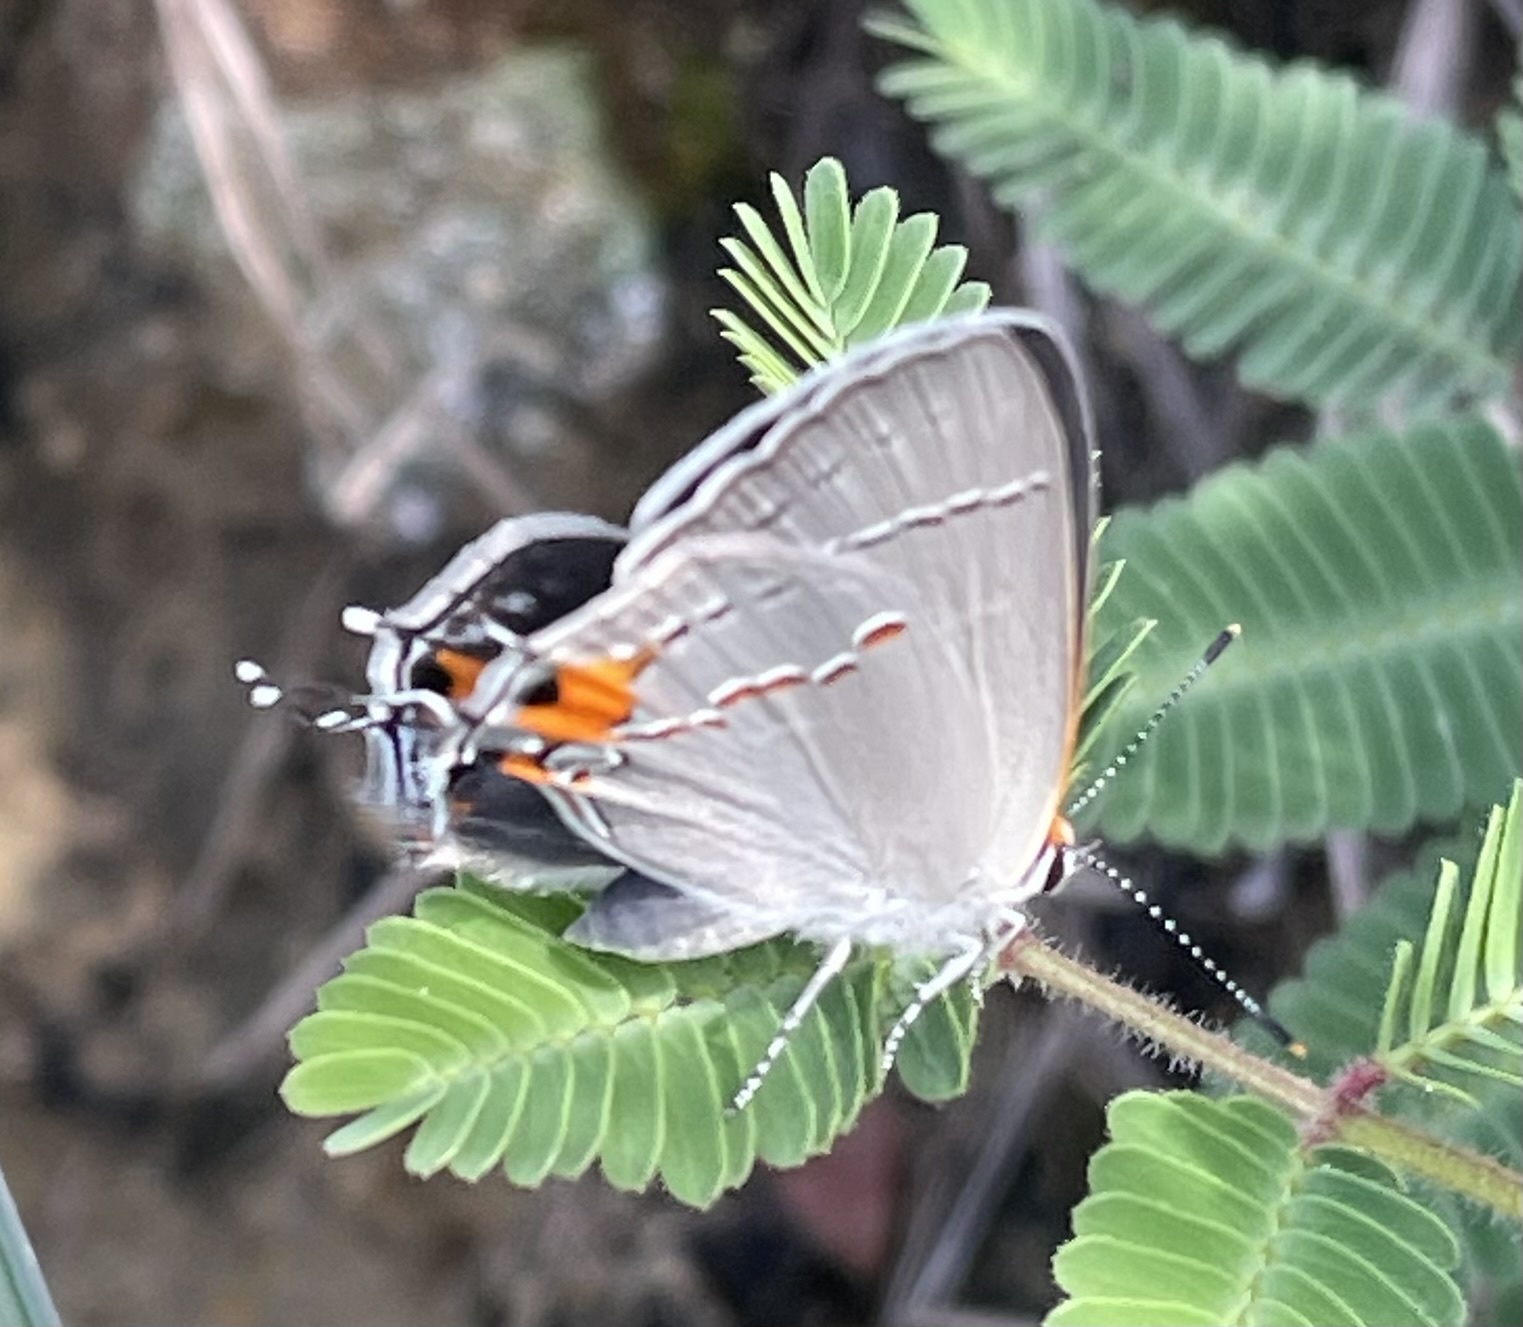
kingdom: Animalia
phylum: Arthropoda
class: Insecta
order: Lepidoptera
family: Lycaenidae
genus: Strymon
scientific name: Strymon melinus
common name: Gray hairstreak
